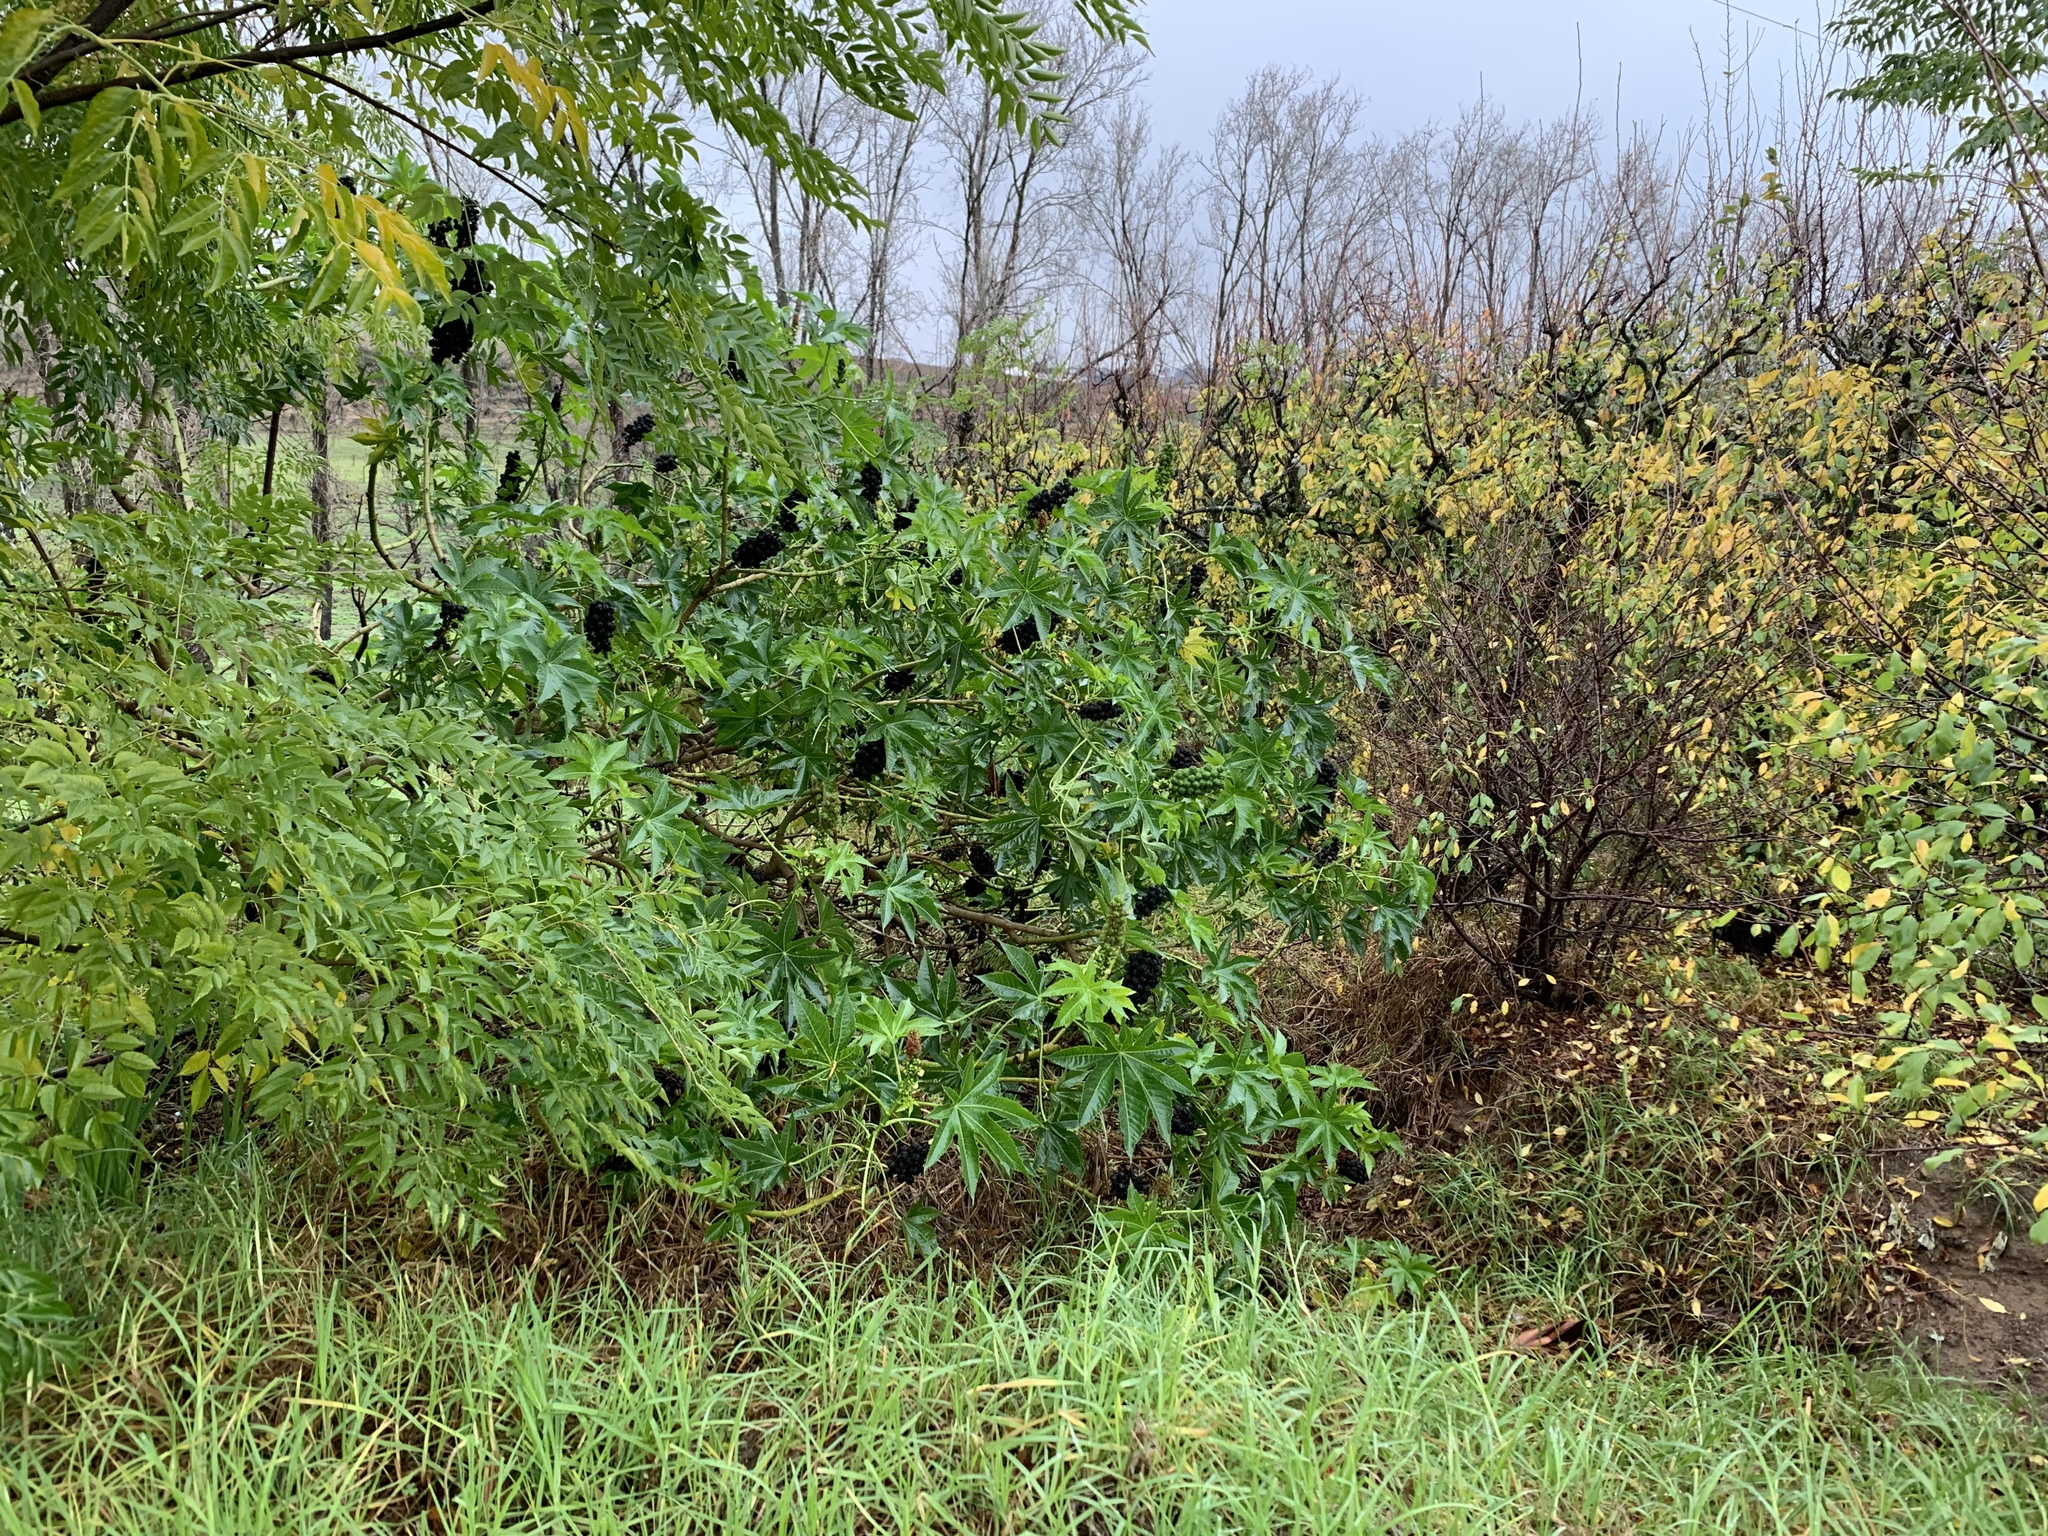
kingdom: Plantae
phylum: Tracheophyta
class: Magnoliopsida
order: Malpighiales
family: Euphorbiaceae
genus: Ricinus
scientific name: Ricinus communis
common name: Castor-oil-plant
